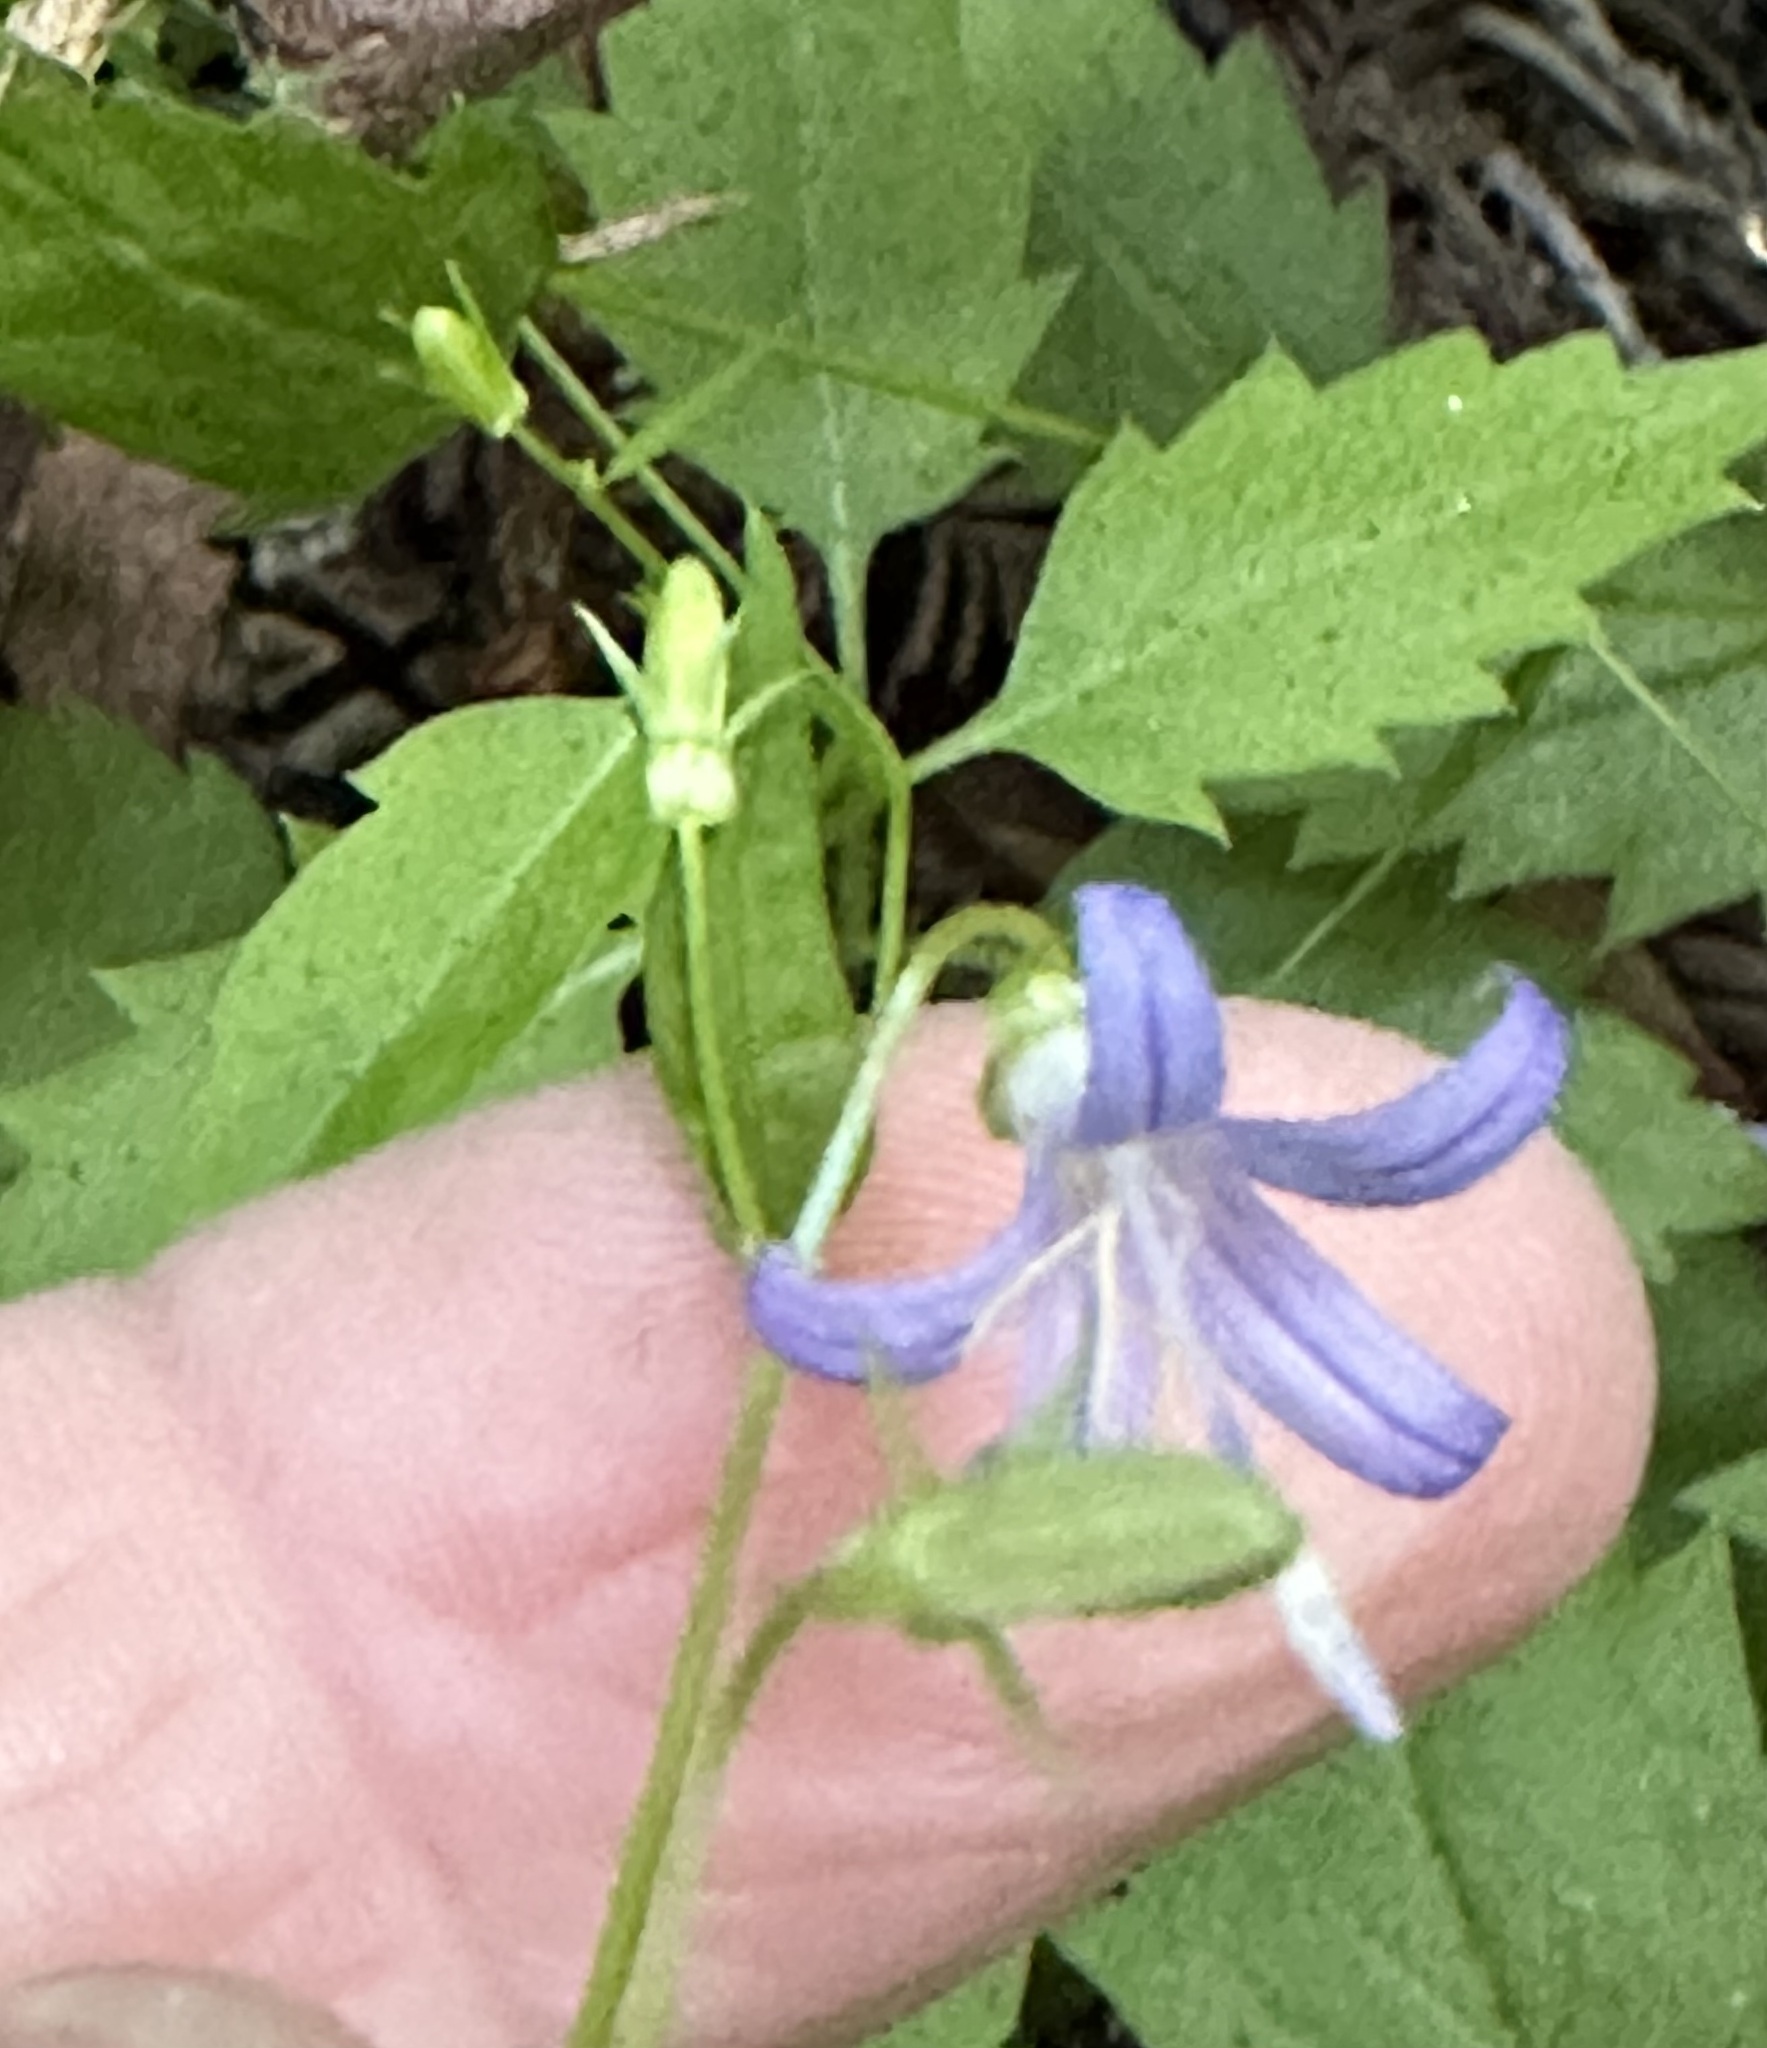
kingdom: Plantae
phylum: Tracheophyta
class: Magnoliopsida
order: Asterales
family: Campanulaceae
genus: Smithiastrum
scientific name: Smithiastrum prenanthoides
